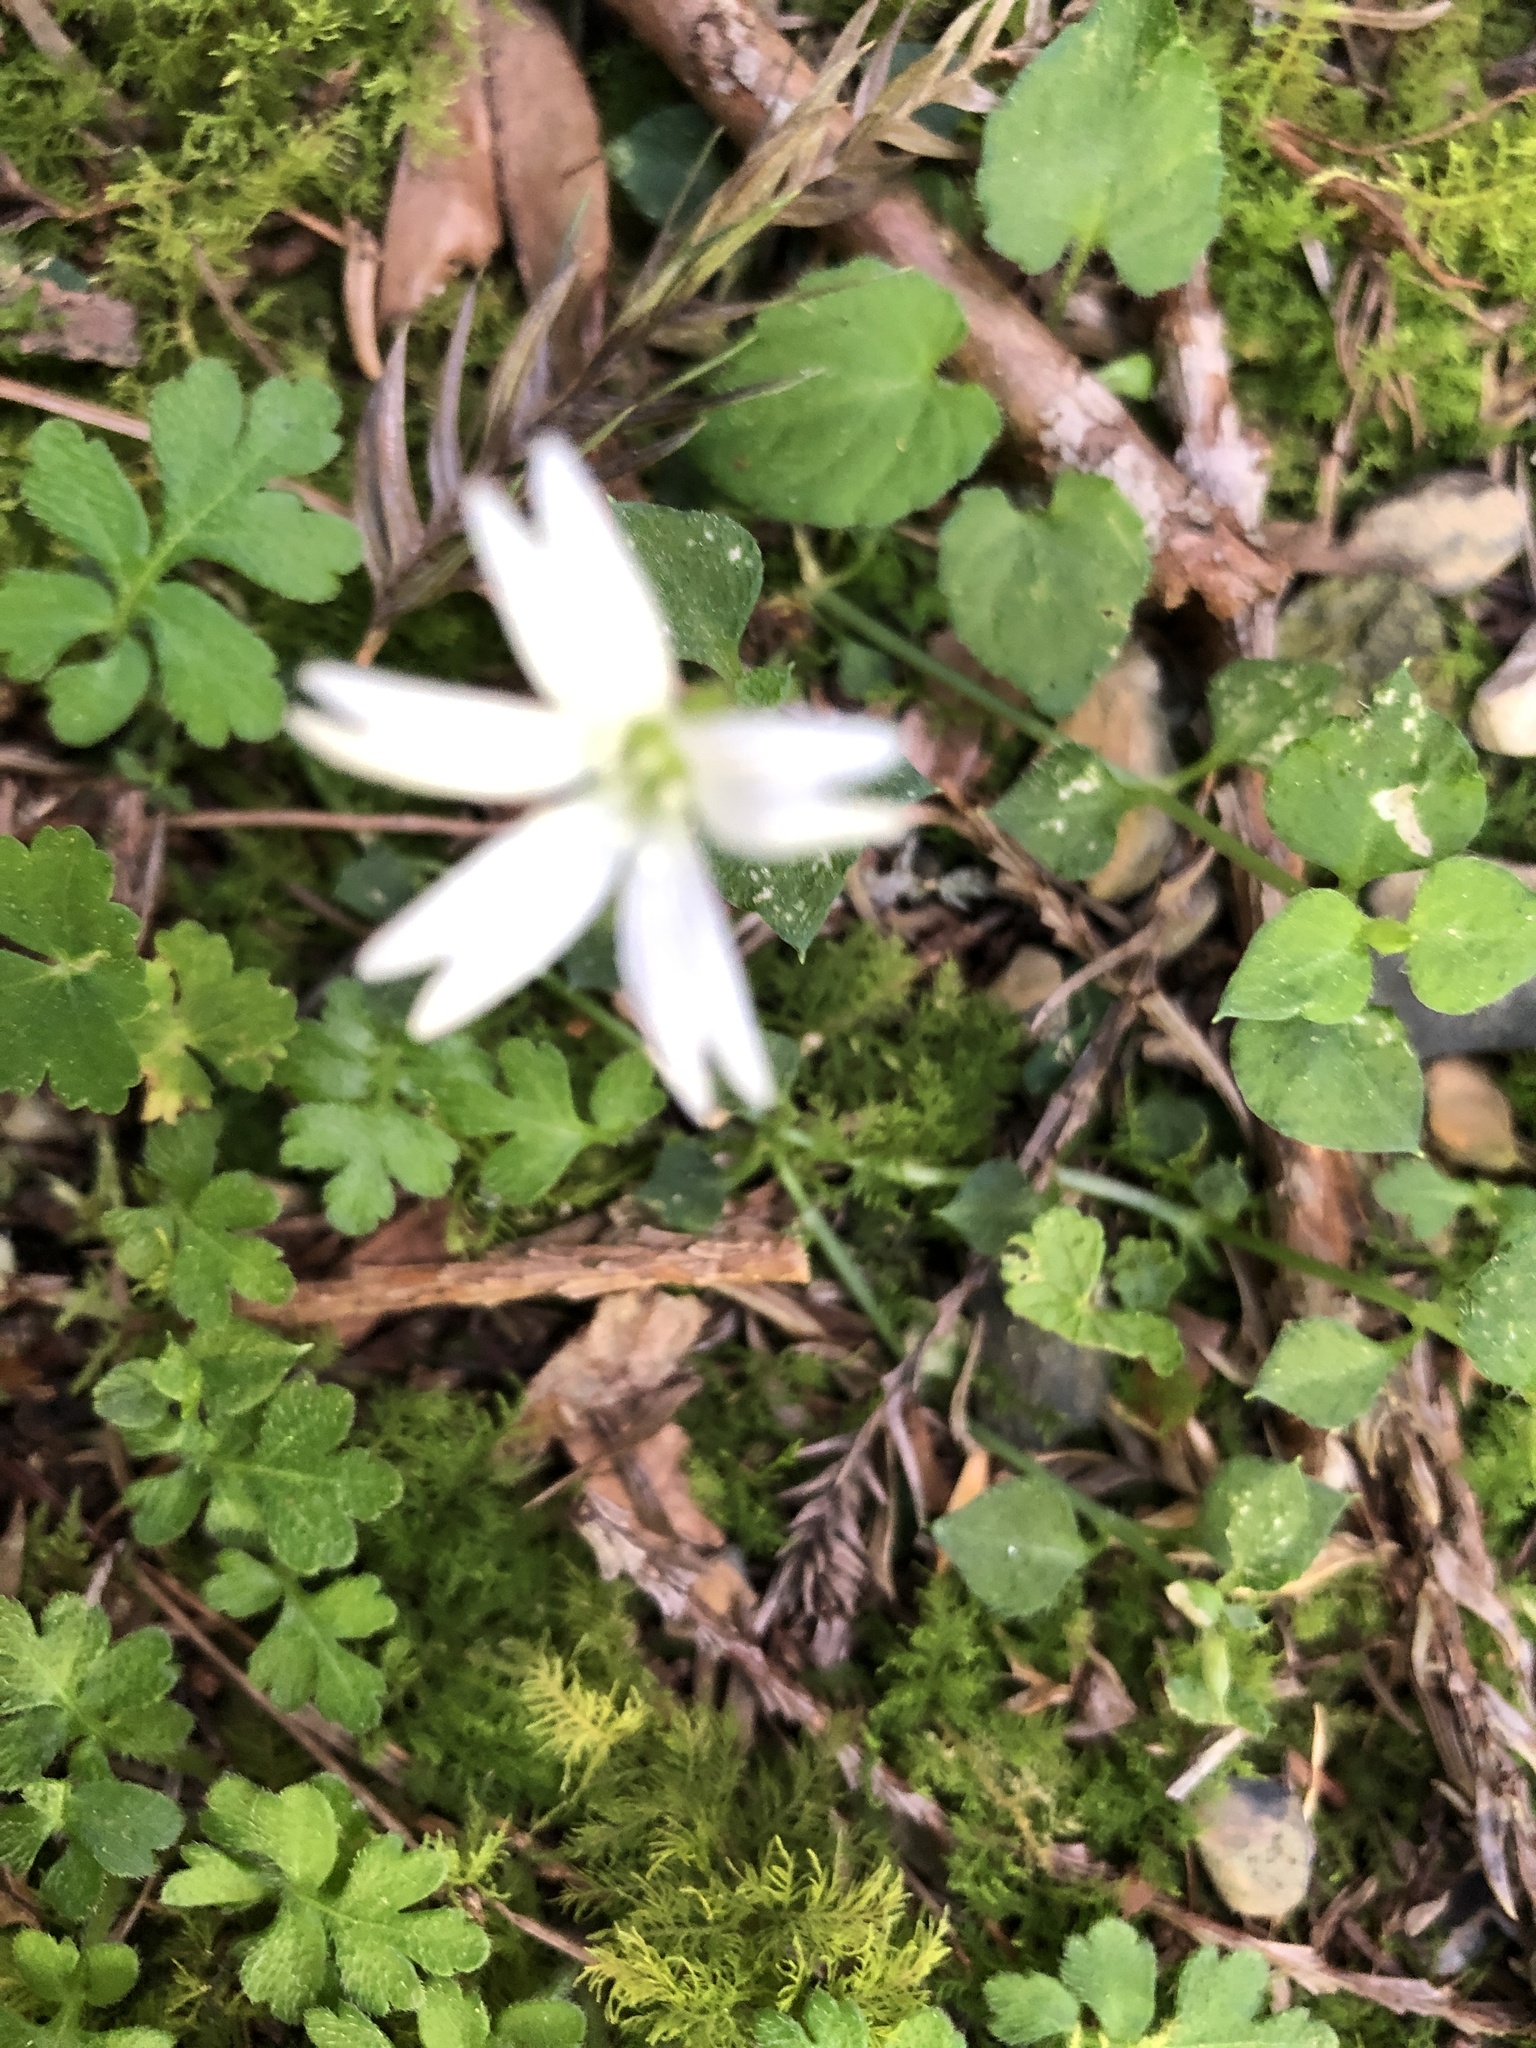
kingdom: Plantae
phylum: Tracheophyta
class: Magnoliopsida
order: Caryophyllales
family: Caryophyllaceae
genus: Nubelaria
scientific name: Nubelaria arisanensis
